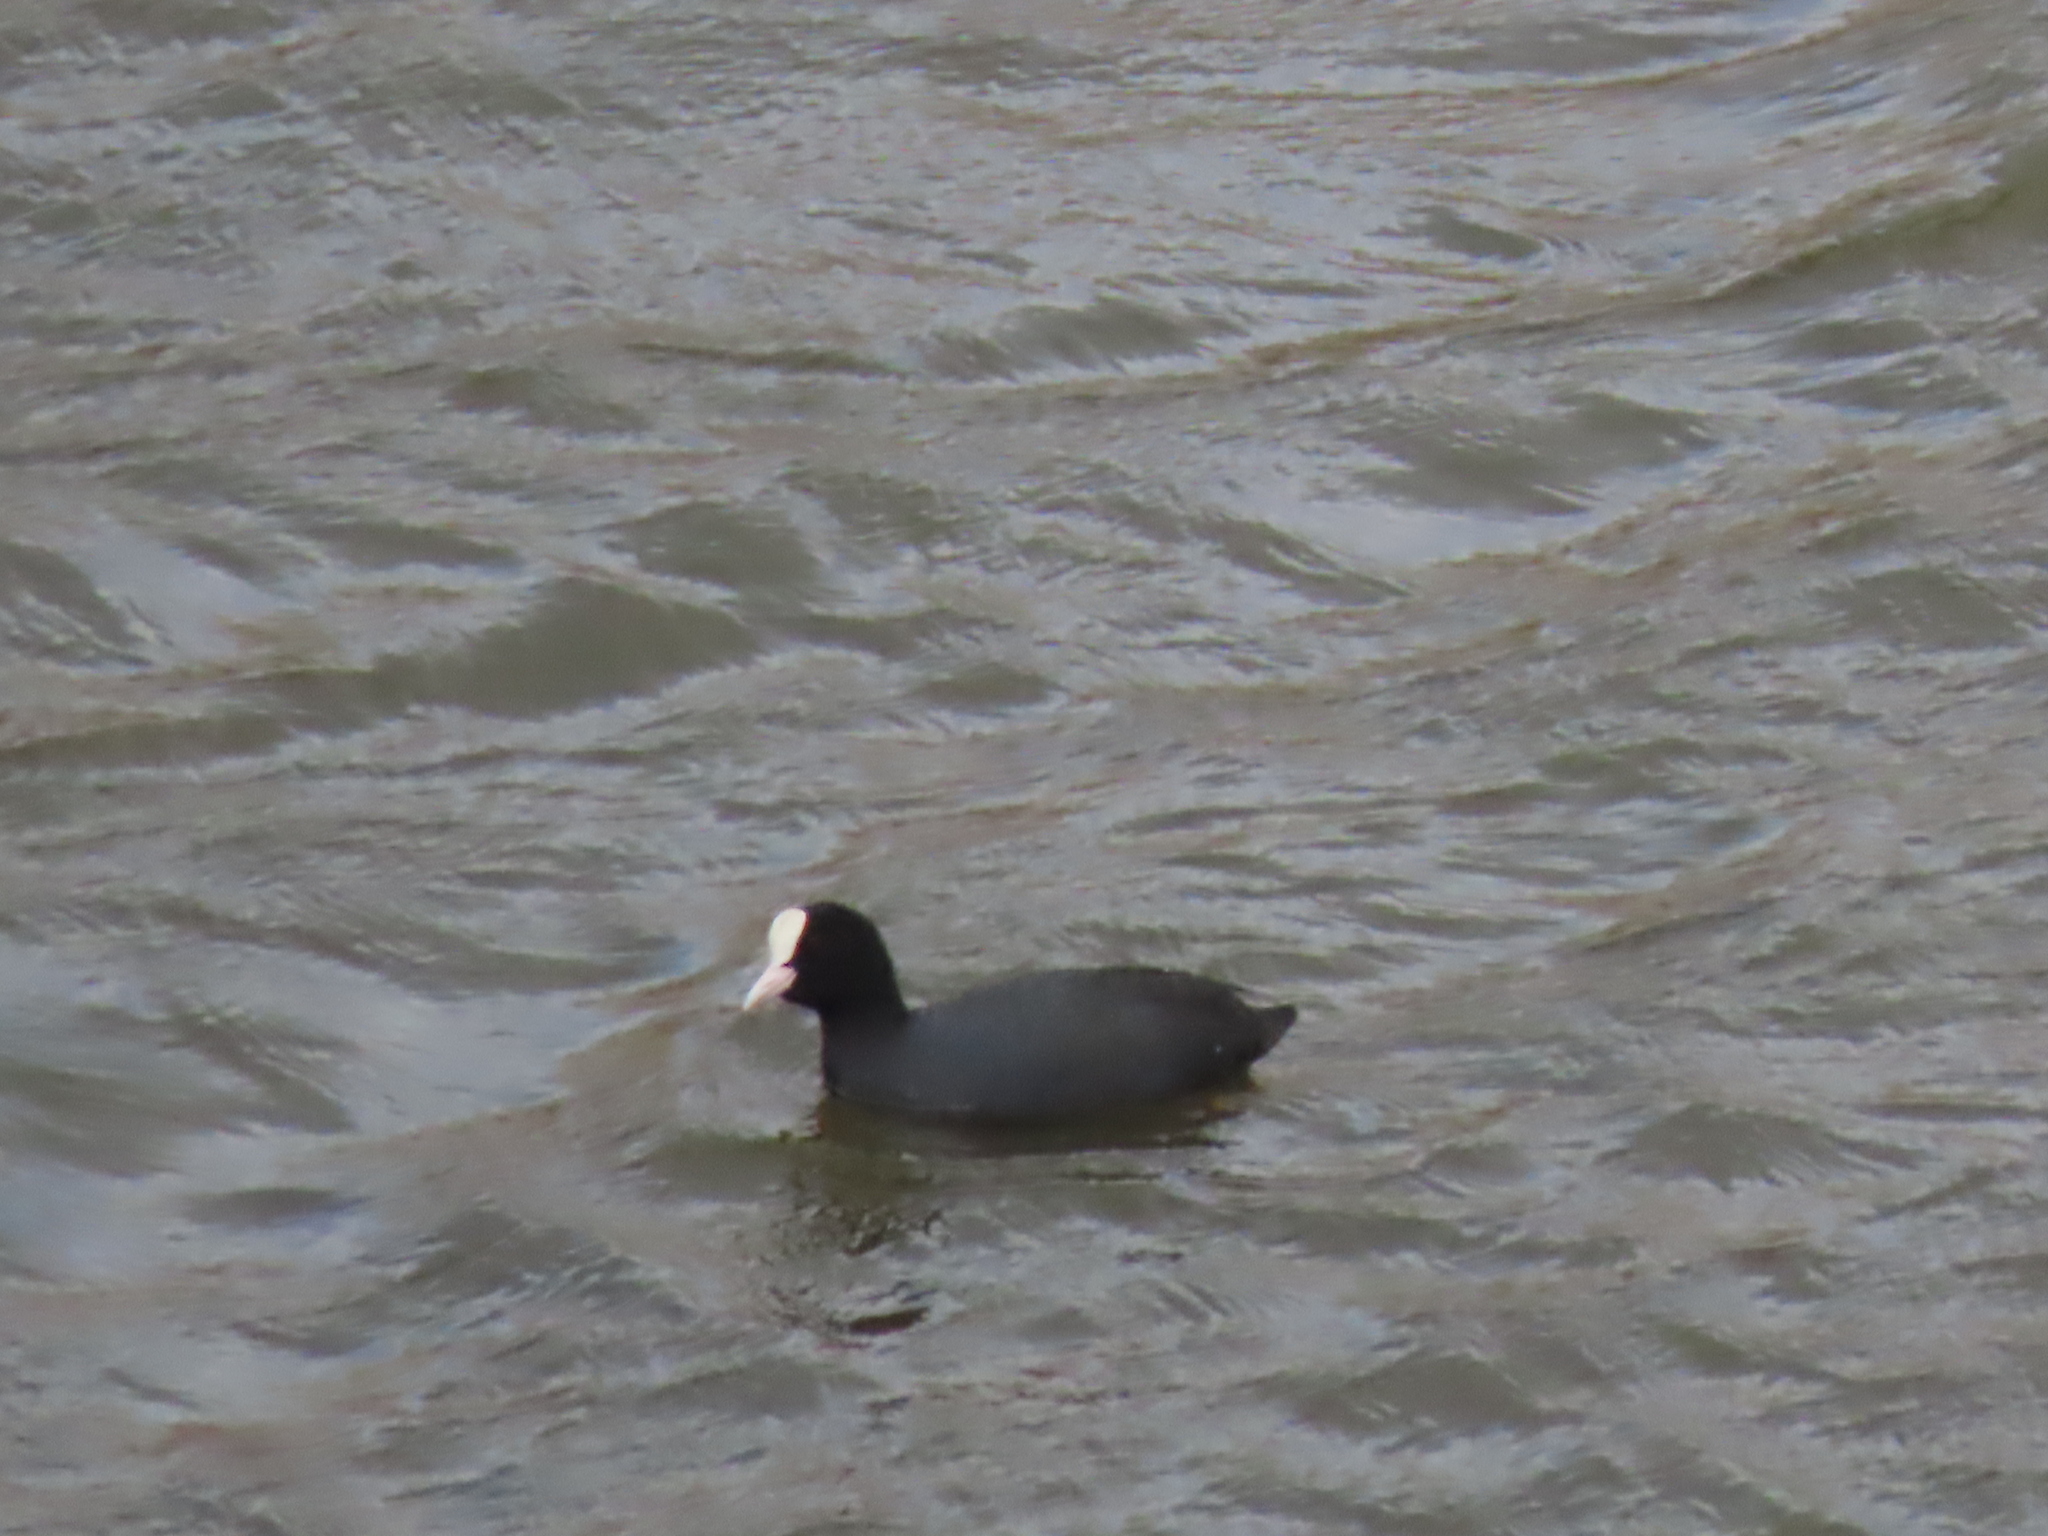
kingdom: Animalia
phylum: Chordata
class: Aves
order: Gruiformes
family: Rallidae
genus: Fulica
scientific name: Fulica atra
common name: Eurasian coot
